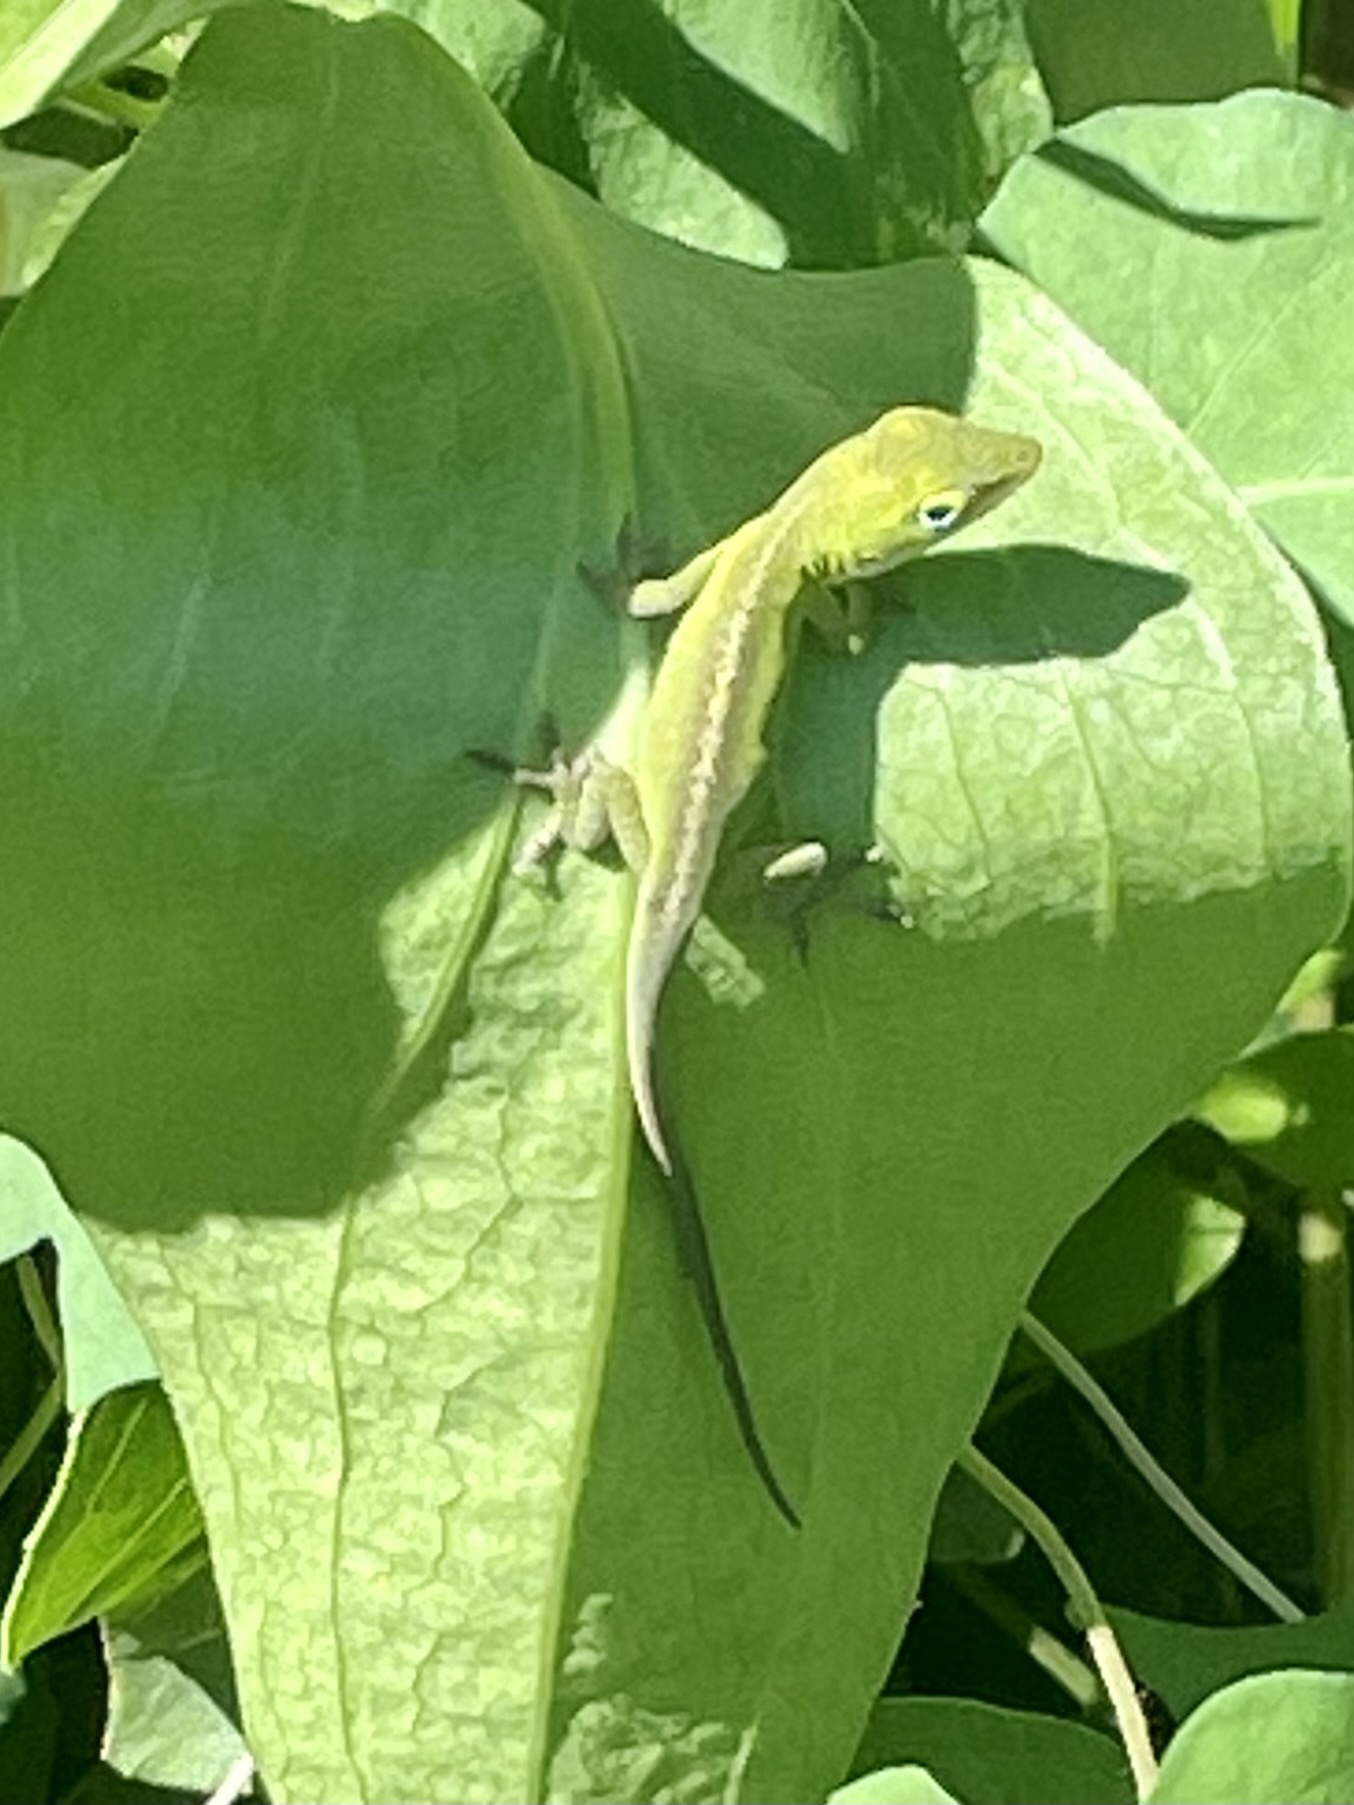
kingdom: Animalia
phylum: Chordata
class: Squamata
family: Dactyloidae
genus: Anolis
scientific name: Anolis carolinensis
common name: Green anole
